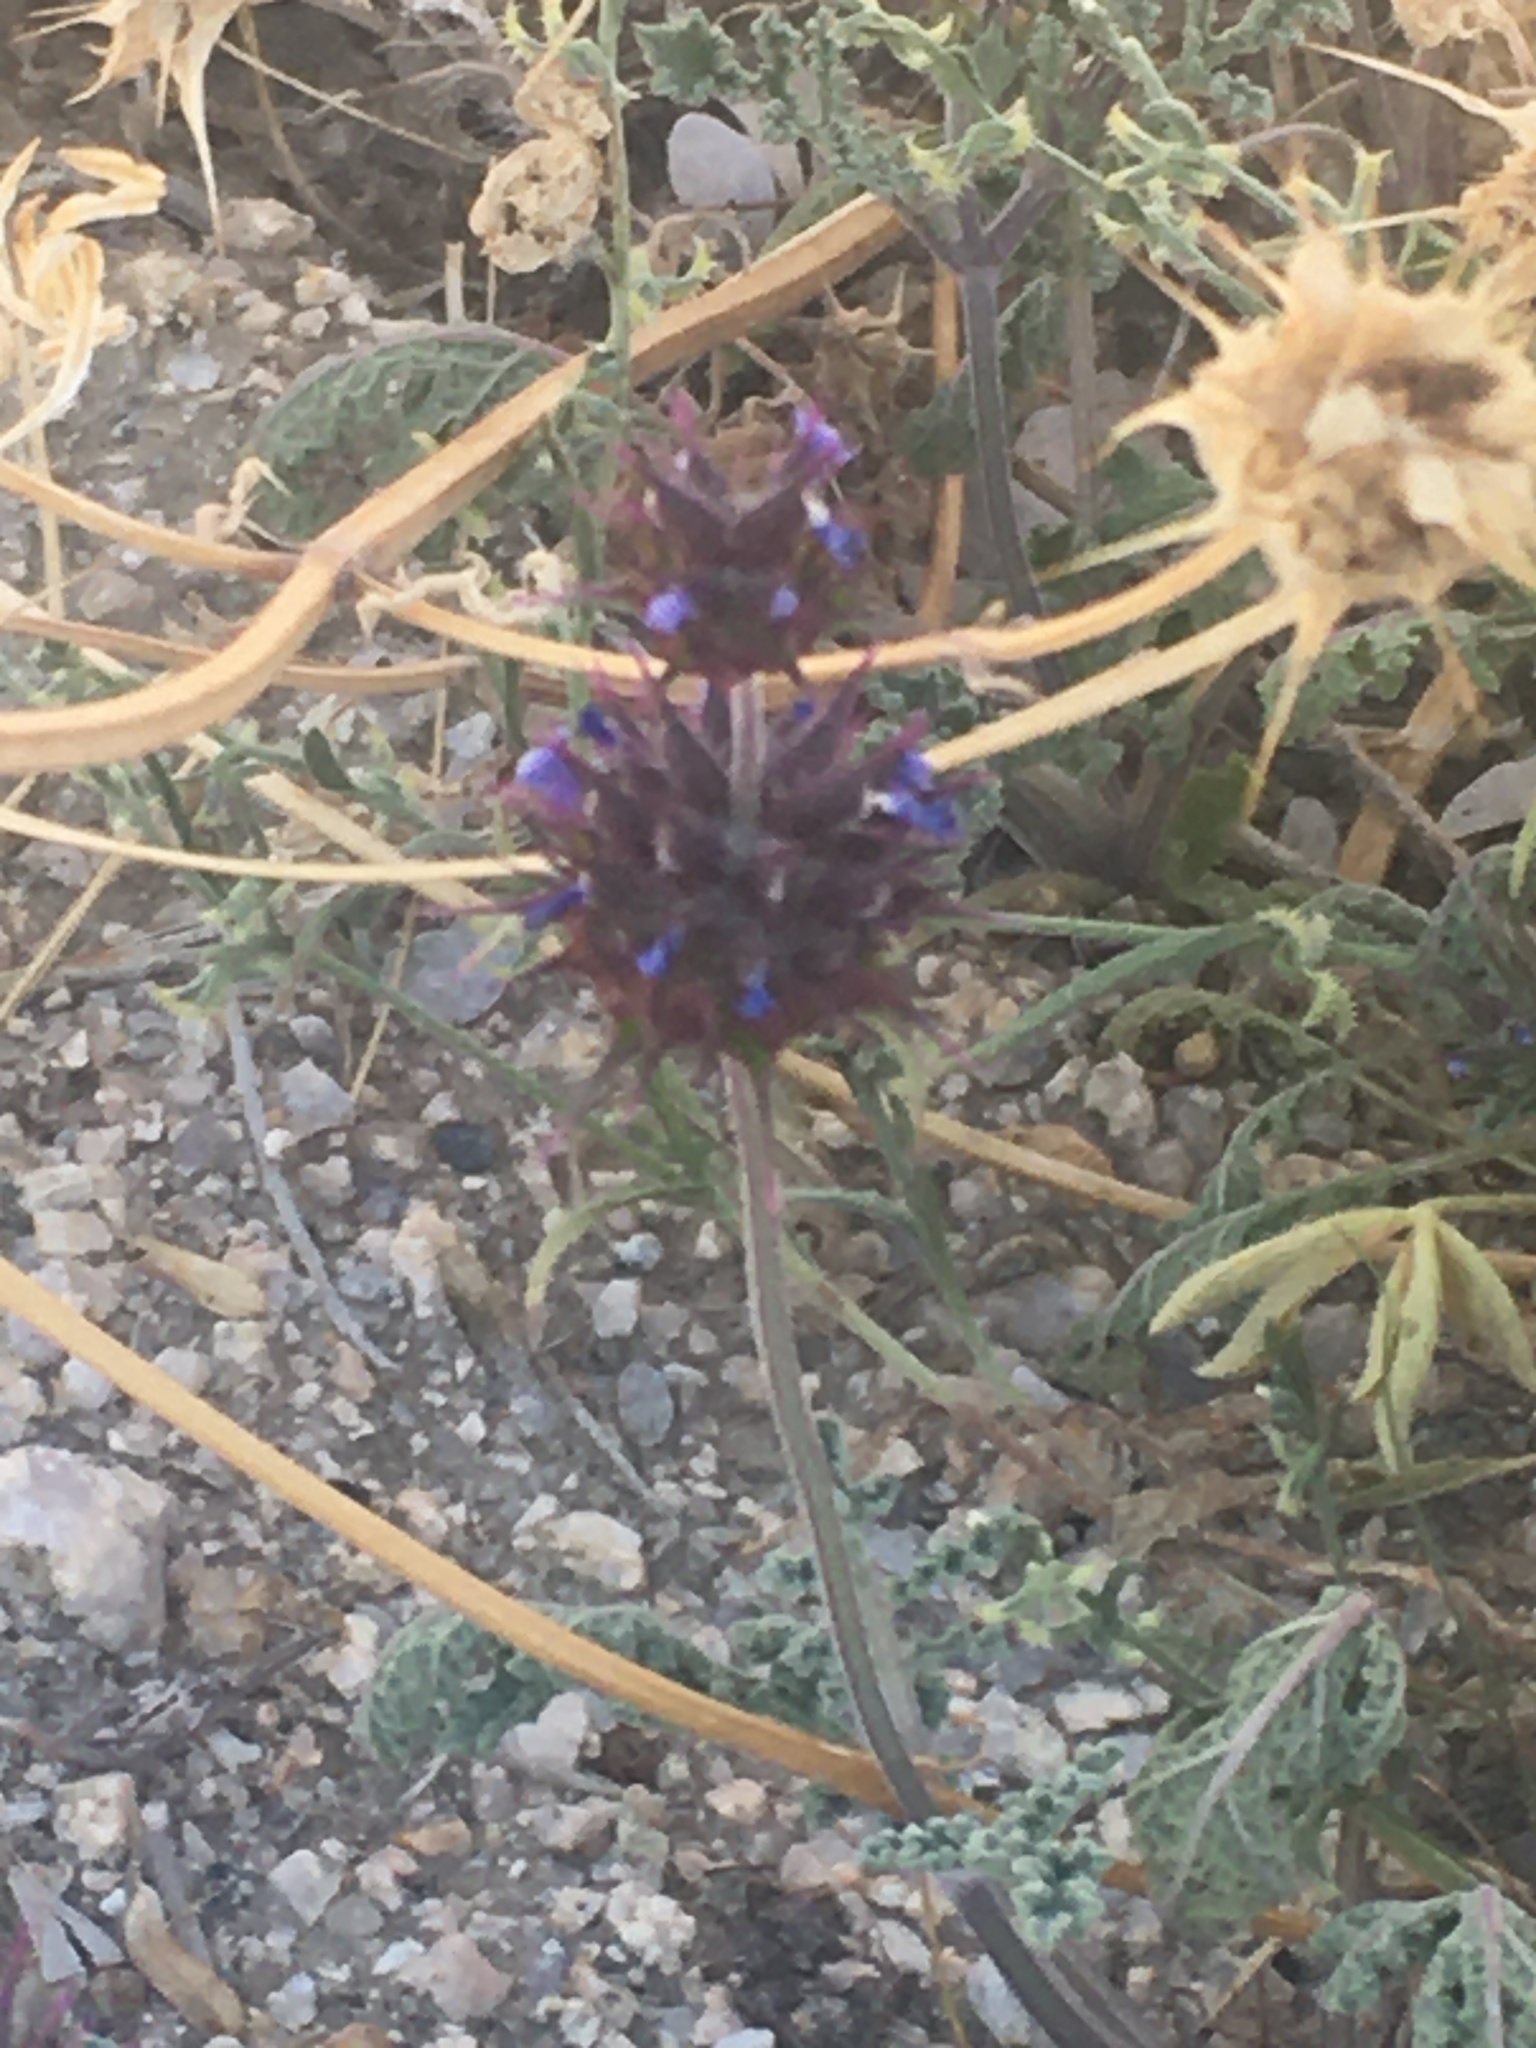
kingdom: Plantae
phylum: Tracheophyta
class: Magnoliopsida
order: Lamiales
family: Lamiaceae
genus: Salvia
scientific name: Salvia columbariae
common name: Chia
